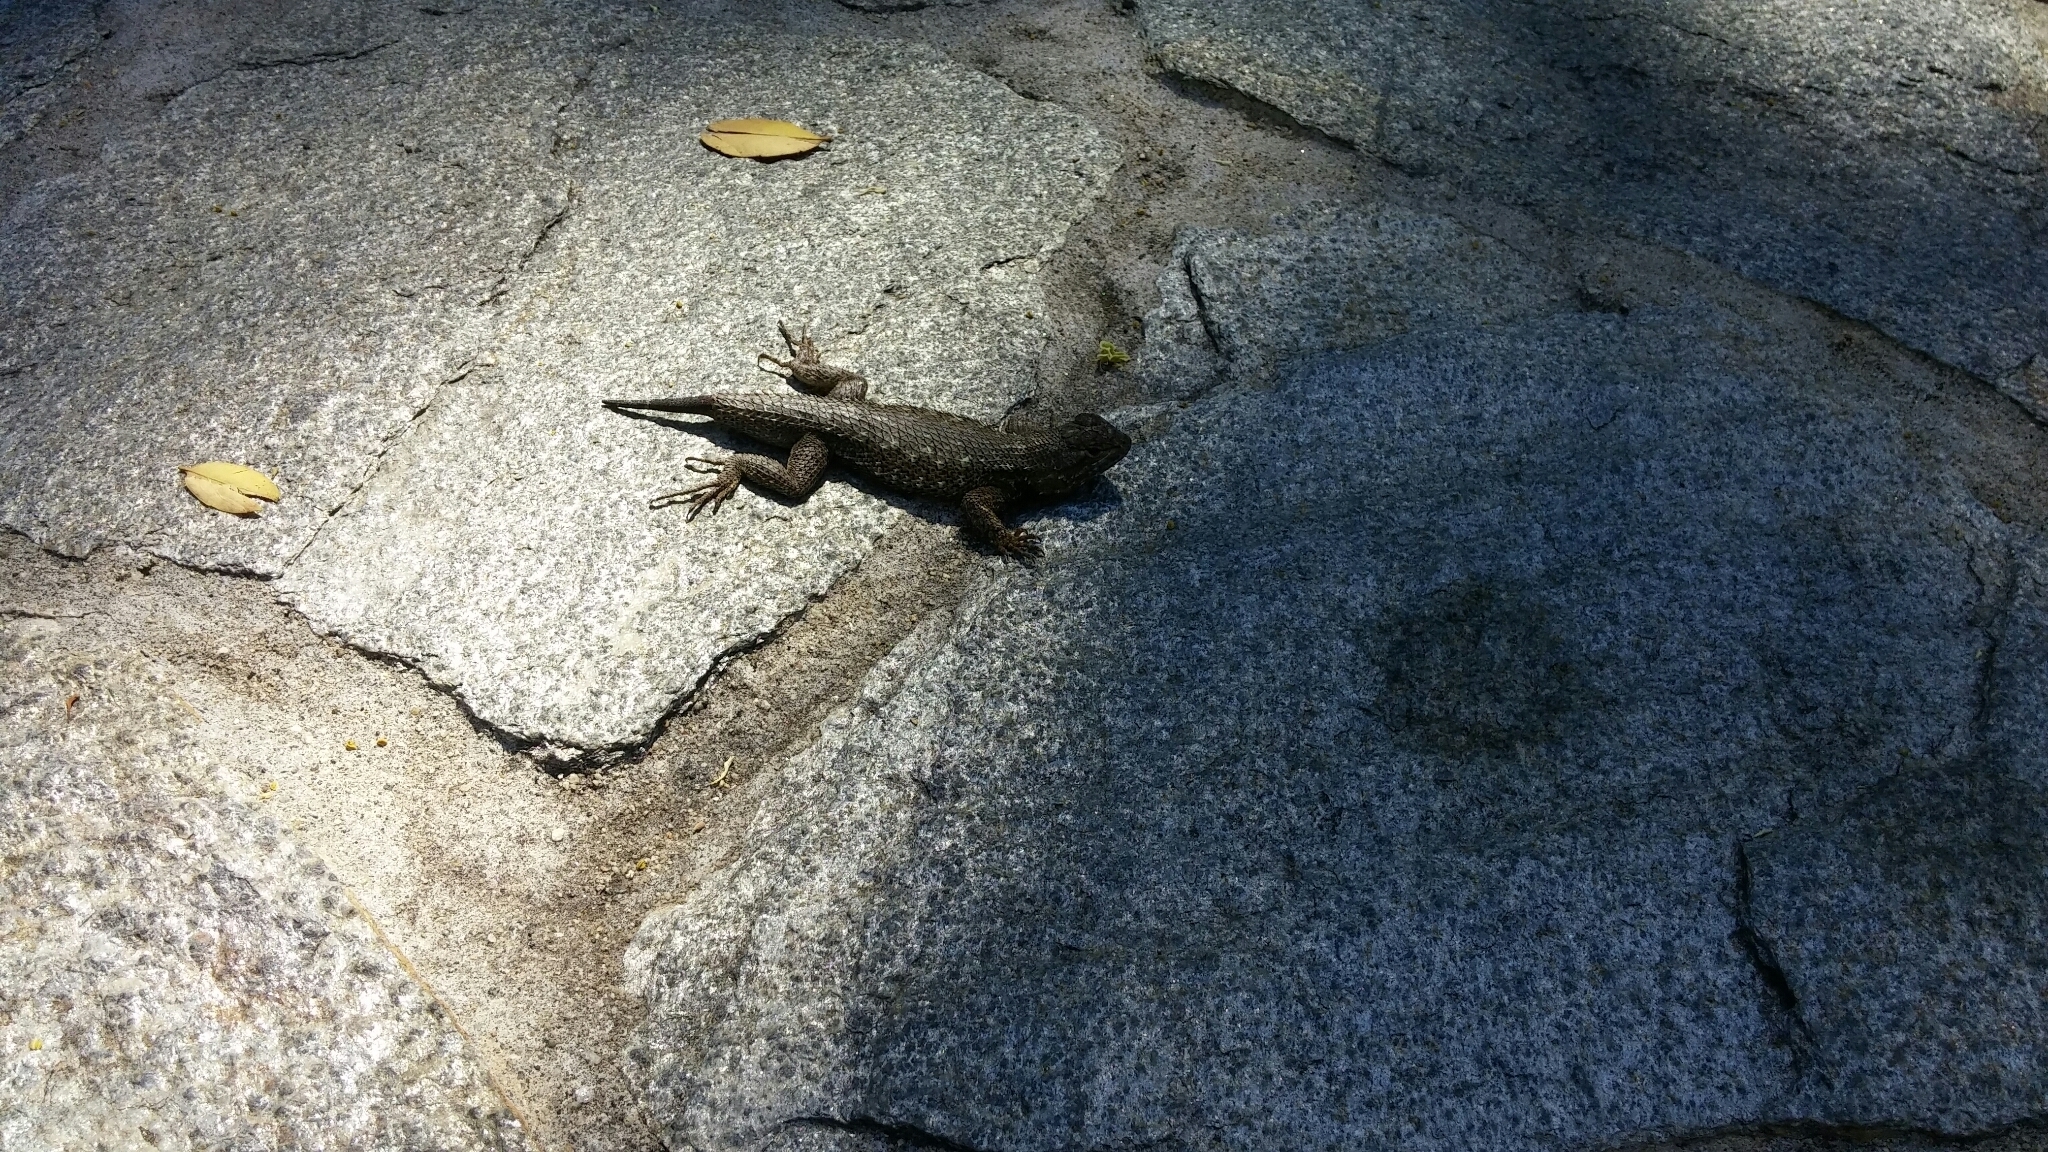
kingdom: Animalia
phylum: Chordata
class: Squamata
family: Phrynosomatidae
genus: Sceloporus
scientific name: Sceloporus occidentalis
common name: Western fence lizard
